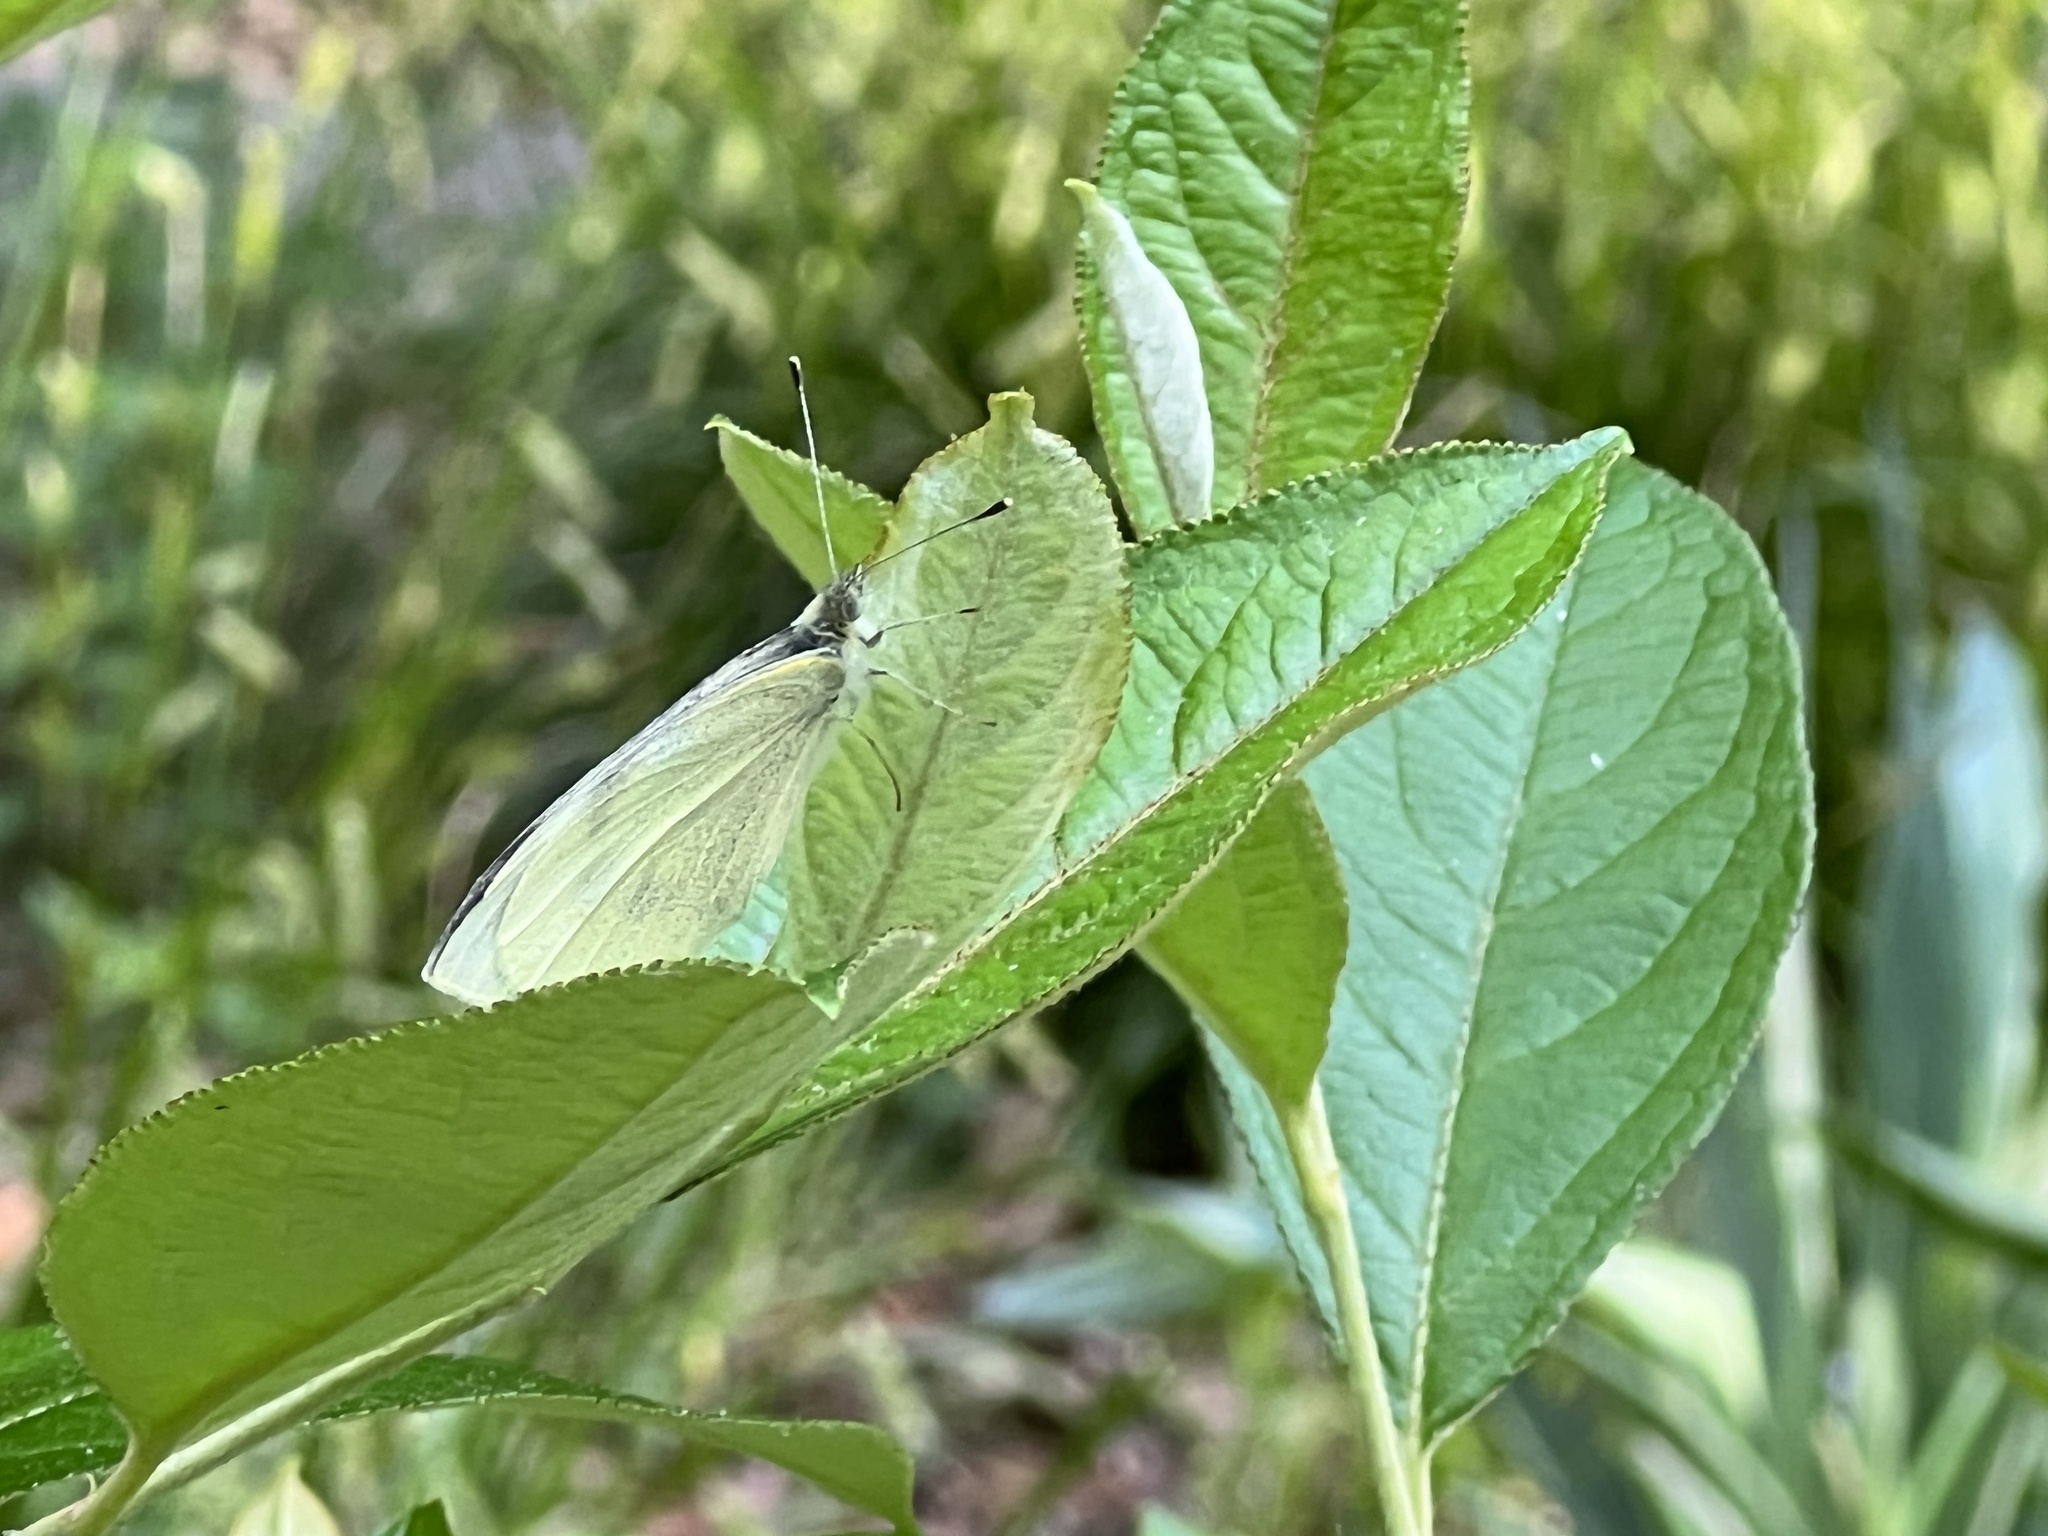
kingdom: Animalia
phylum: Arthropoda
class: Insecta
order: Lepidoptera
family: Pieridae
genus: Pieris
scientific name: Pieris rapae
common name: Small white
